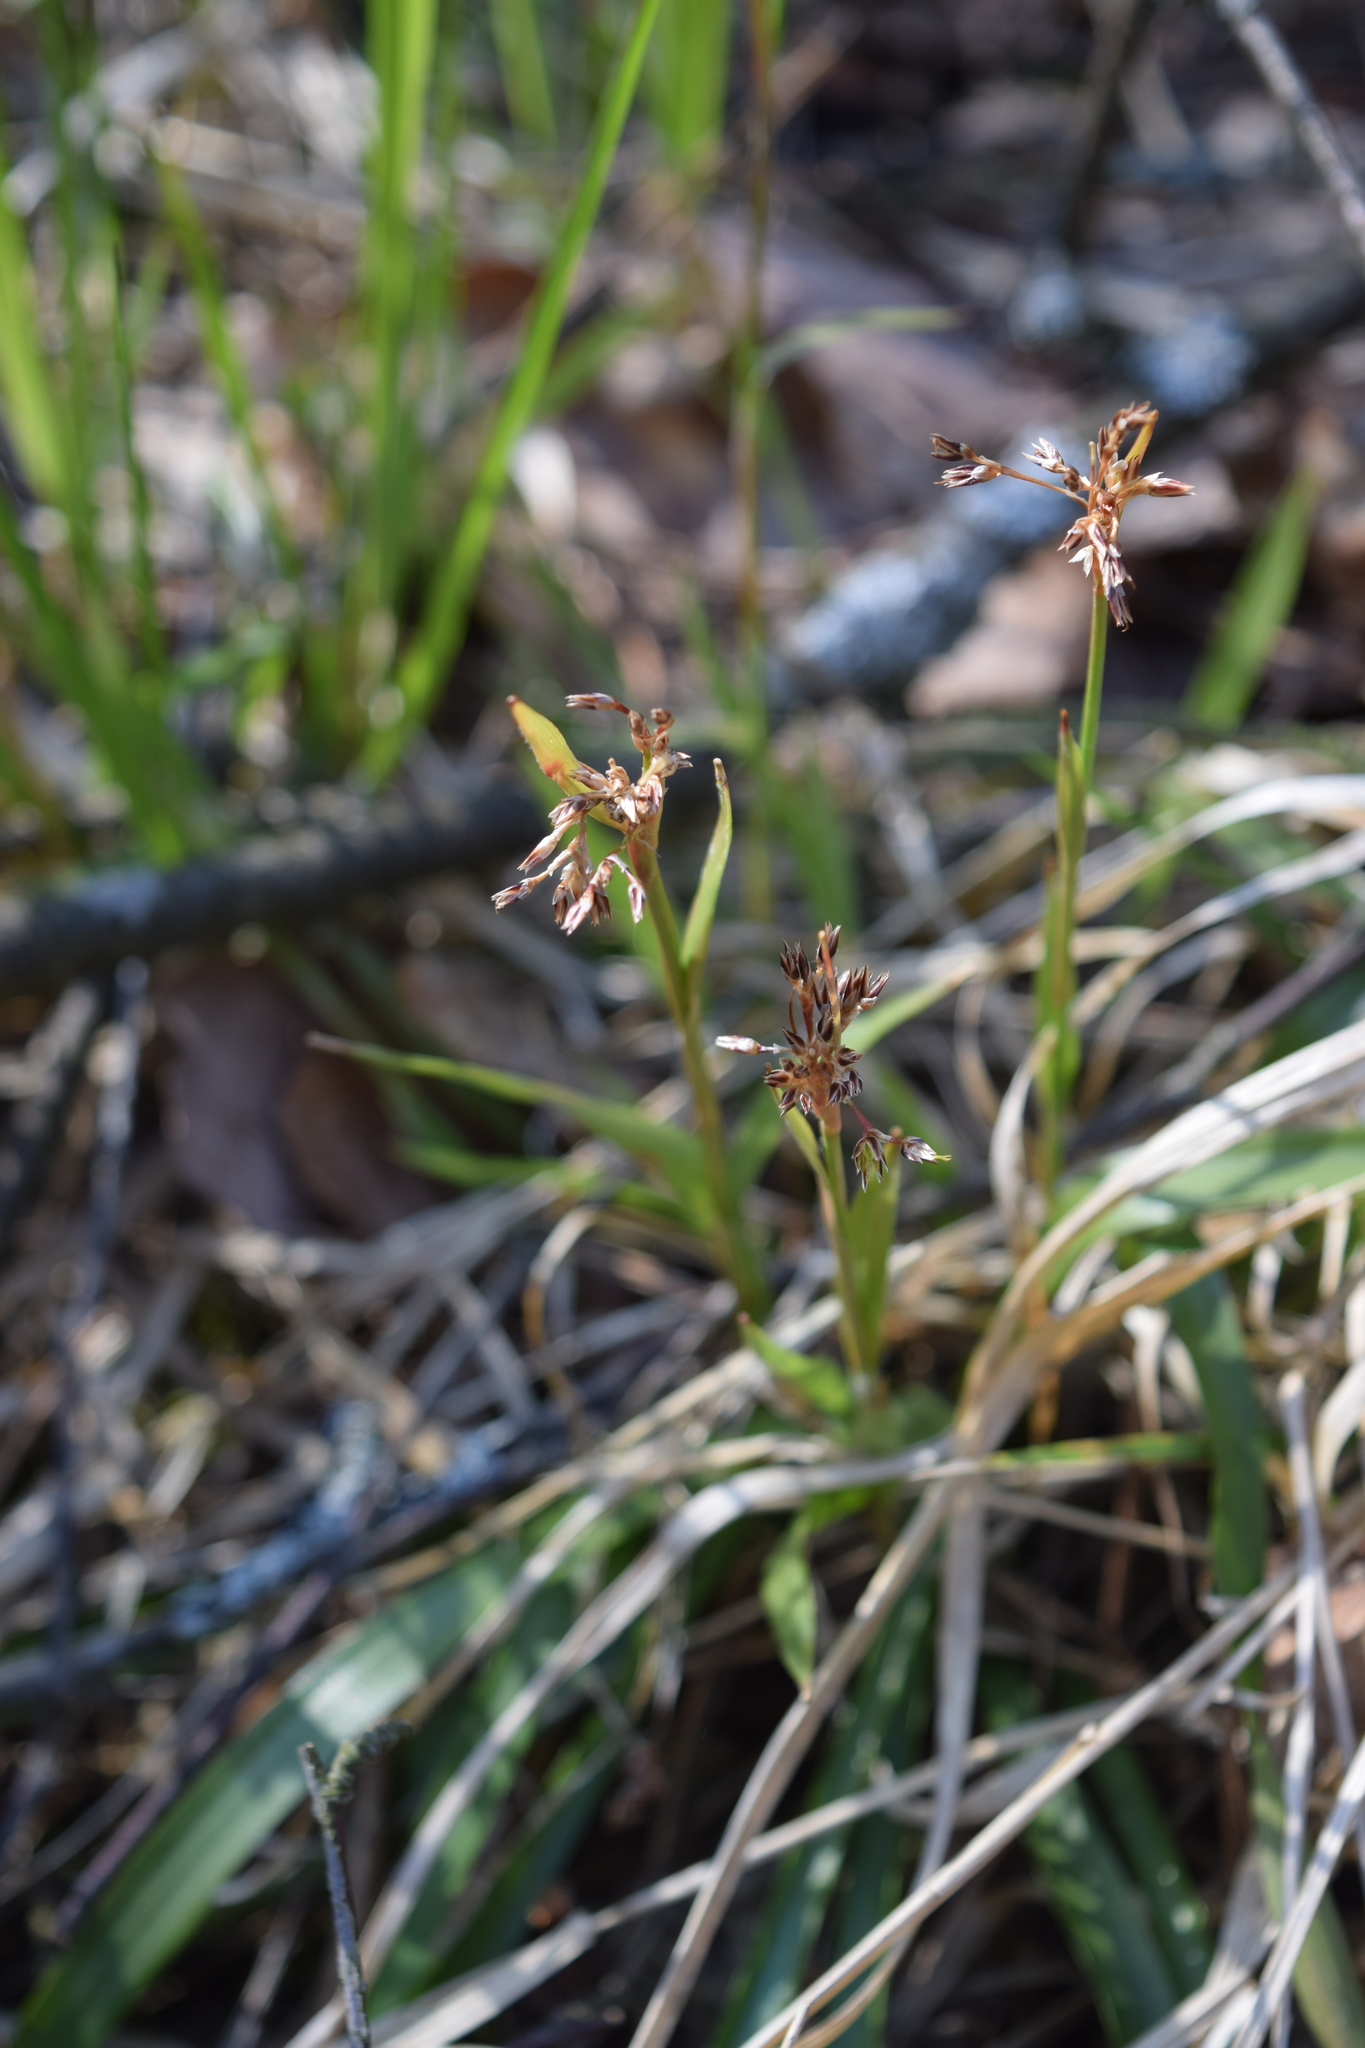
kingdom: Plantae
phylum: Tracheophyta
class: Liliopsida
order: Poales
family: Juncaceae
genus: Luzula
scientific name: Luzula pilosa
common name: Hairy wood-rush
